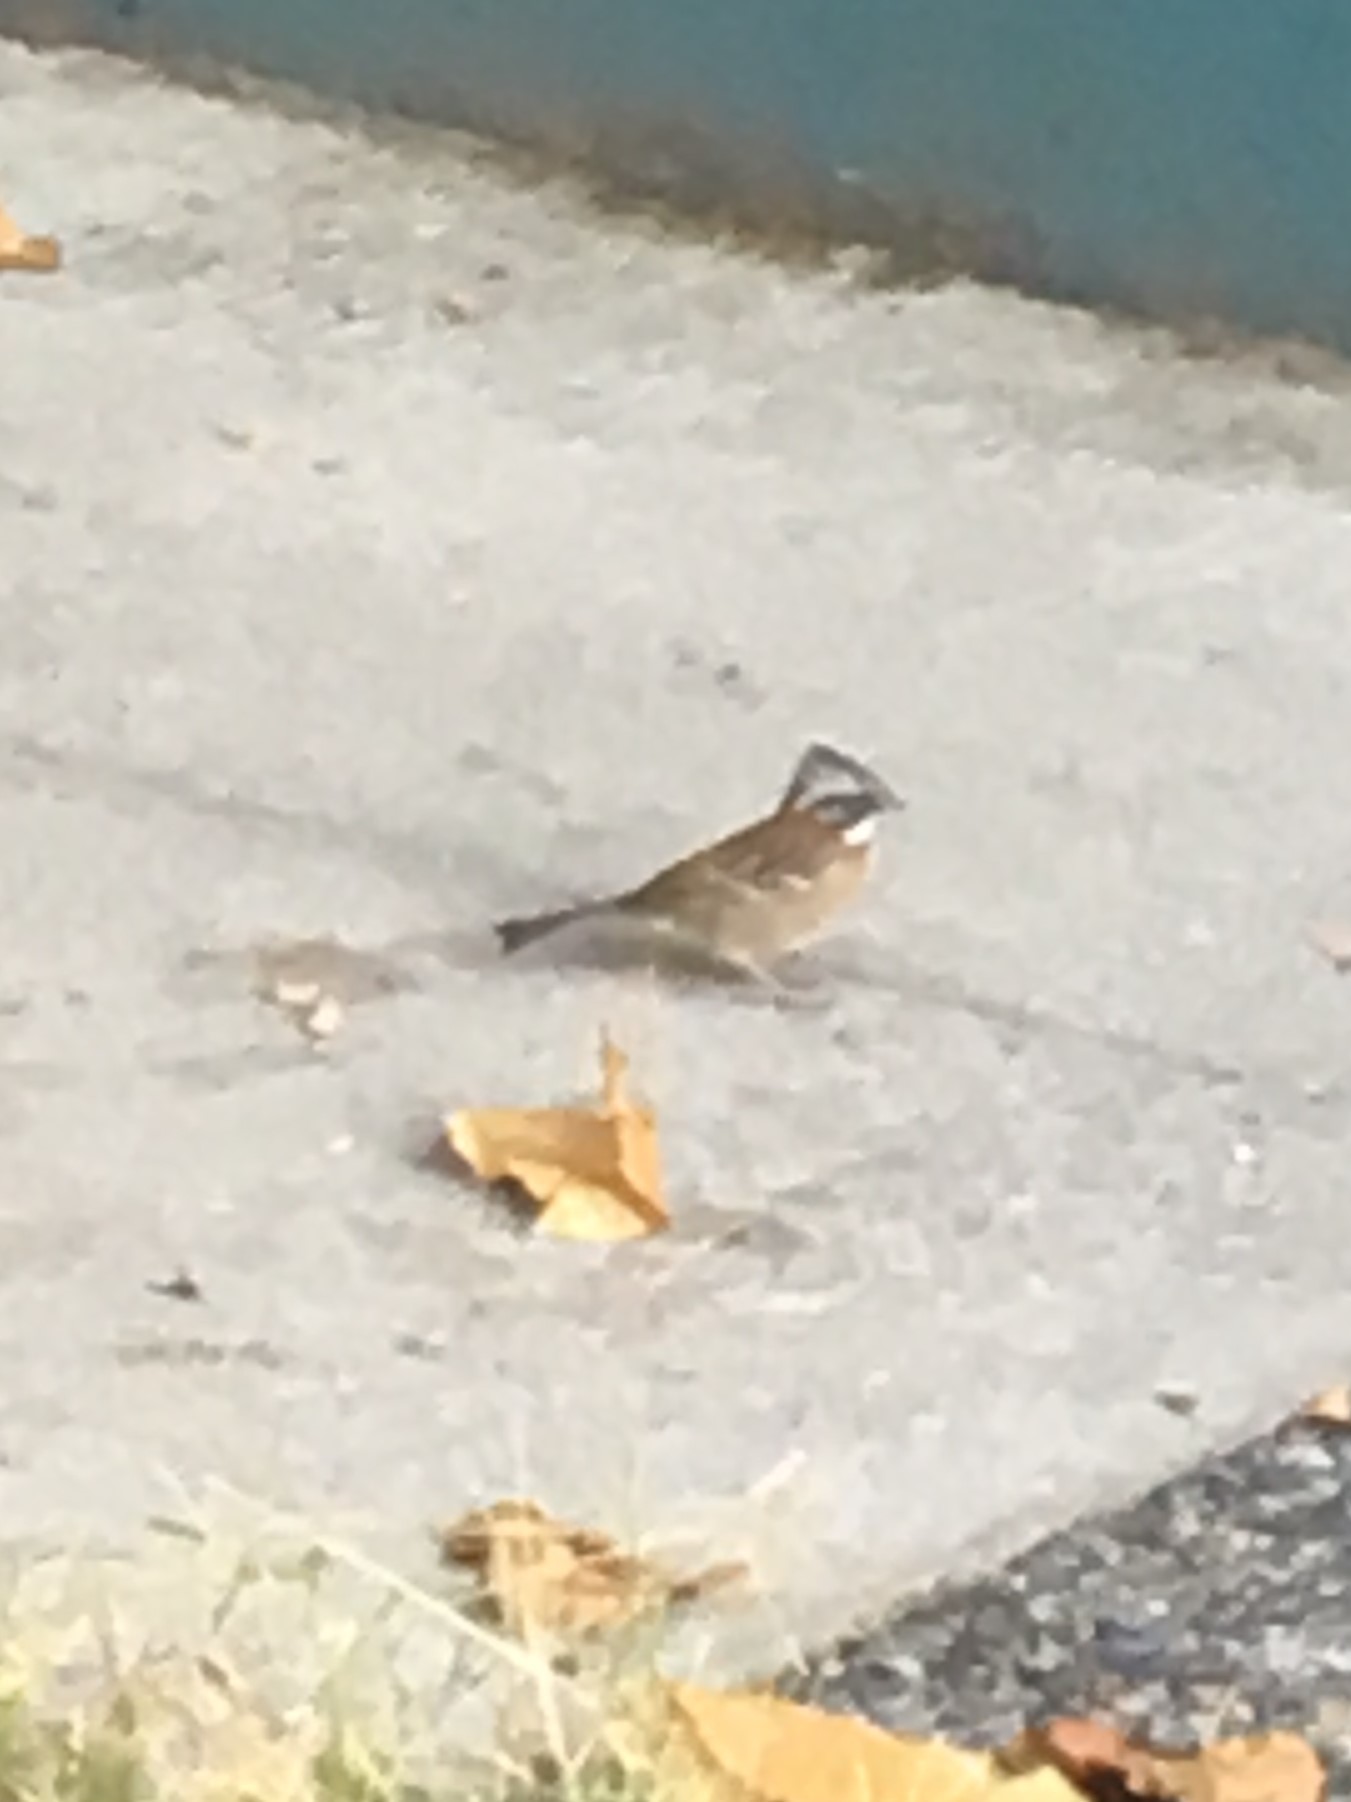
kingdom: Animalia
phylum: Chordata
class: Aves
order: Passeriformes
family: Passerellidae
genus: Zonotrichia
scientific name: Zonotrichia capensis
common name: Rufous-collared sparrow
